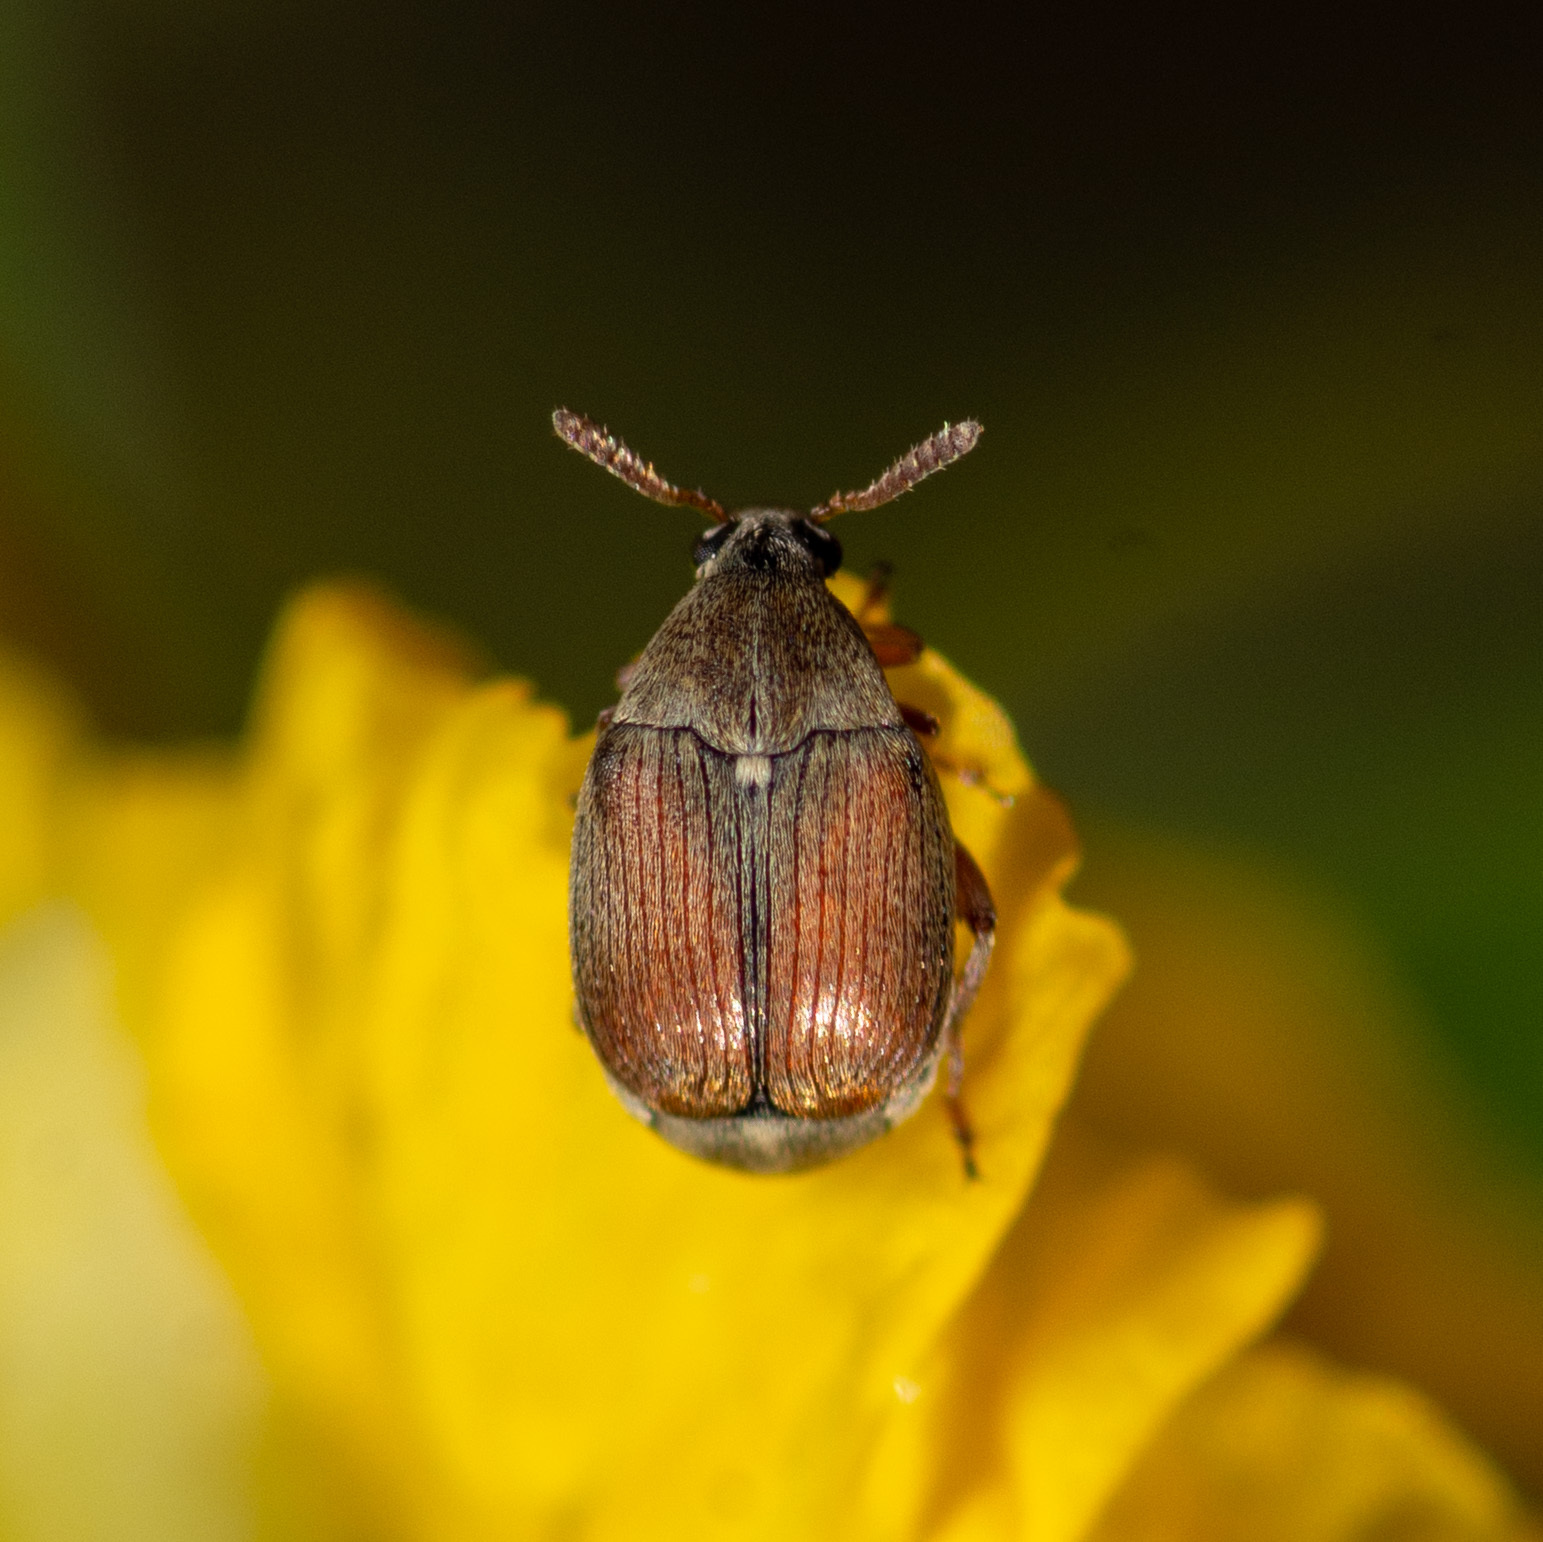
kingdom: Animalia
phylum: Arthropoda
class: Insecta
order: Coleoptera
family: Chrysomelidae
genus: Sennius
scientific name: Sennius discolor
